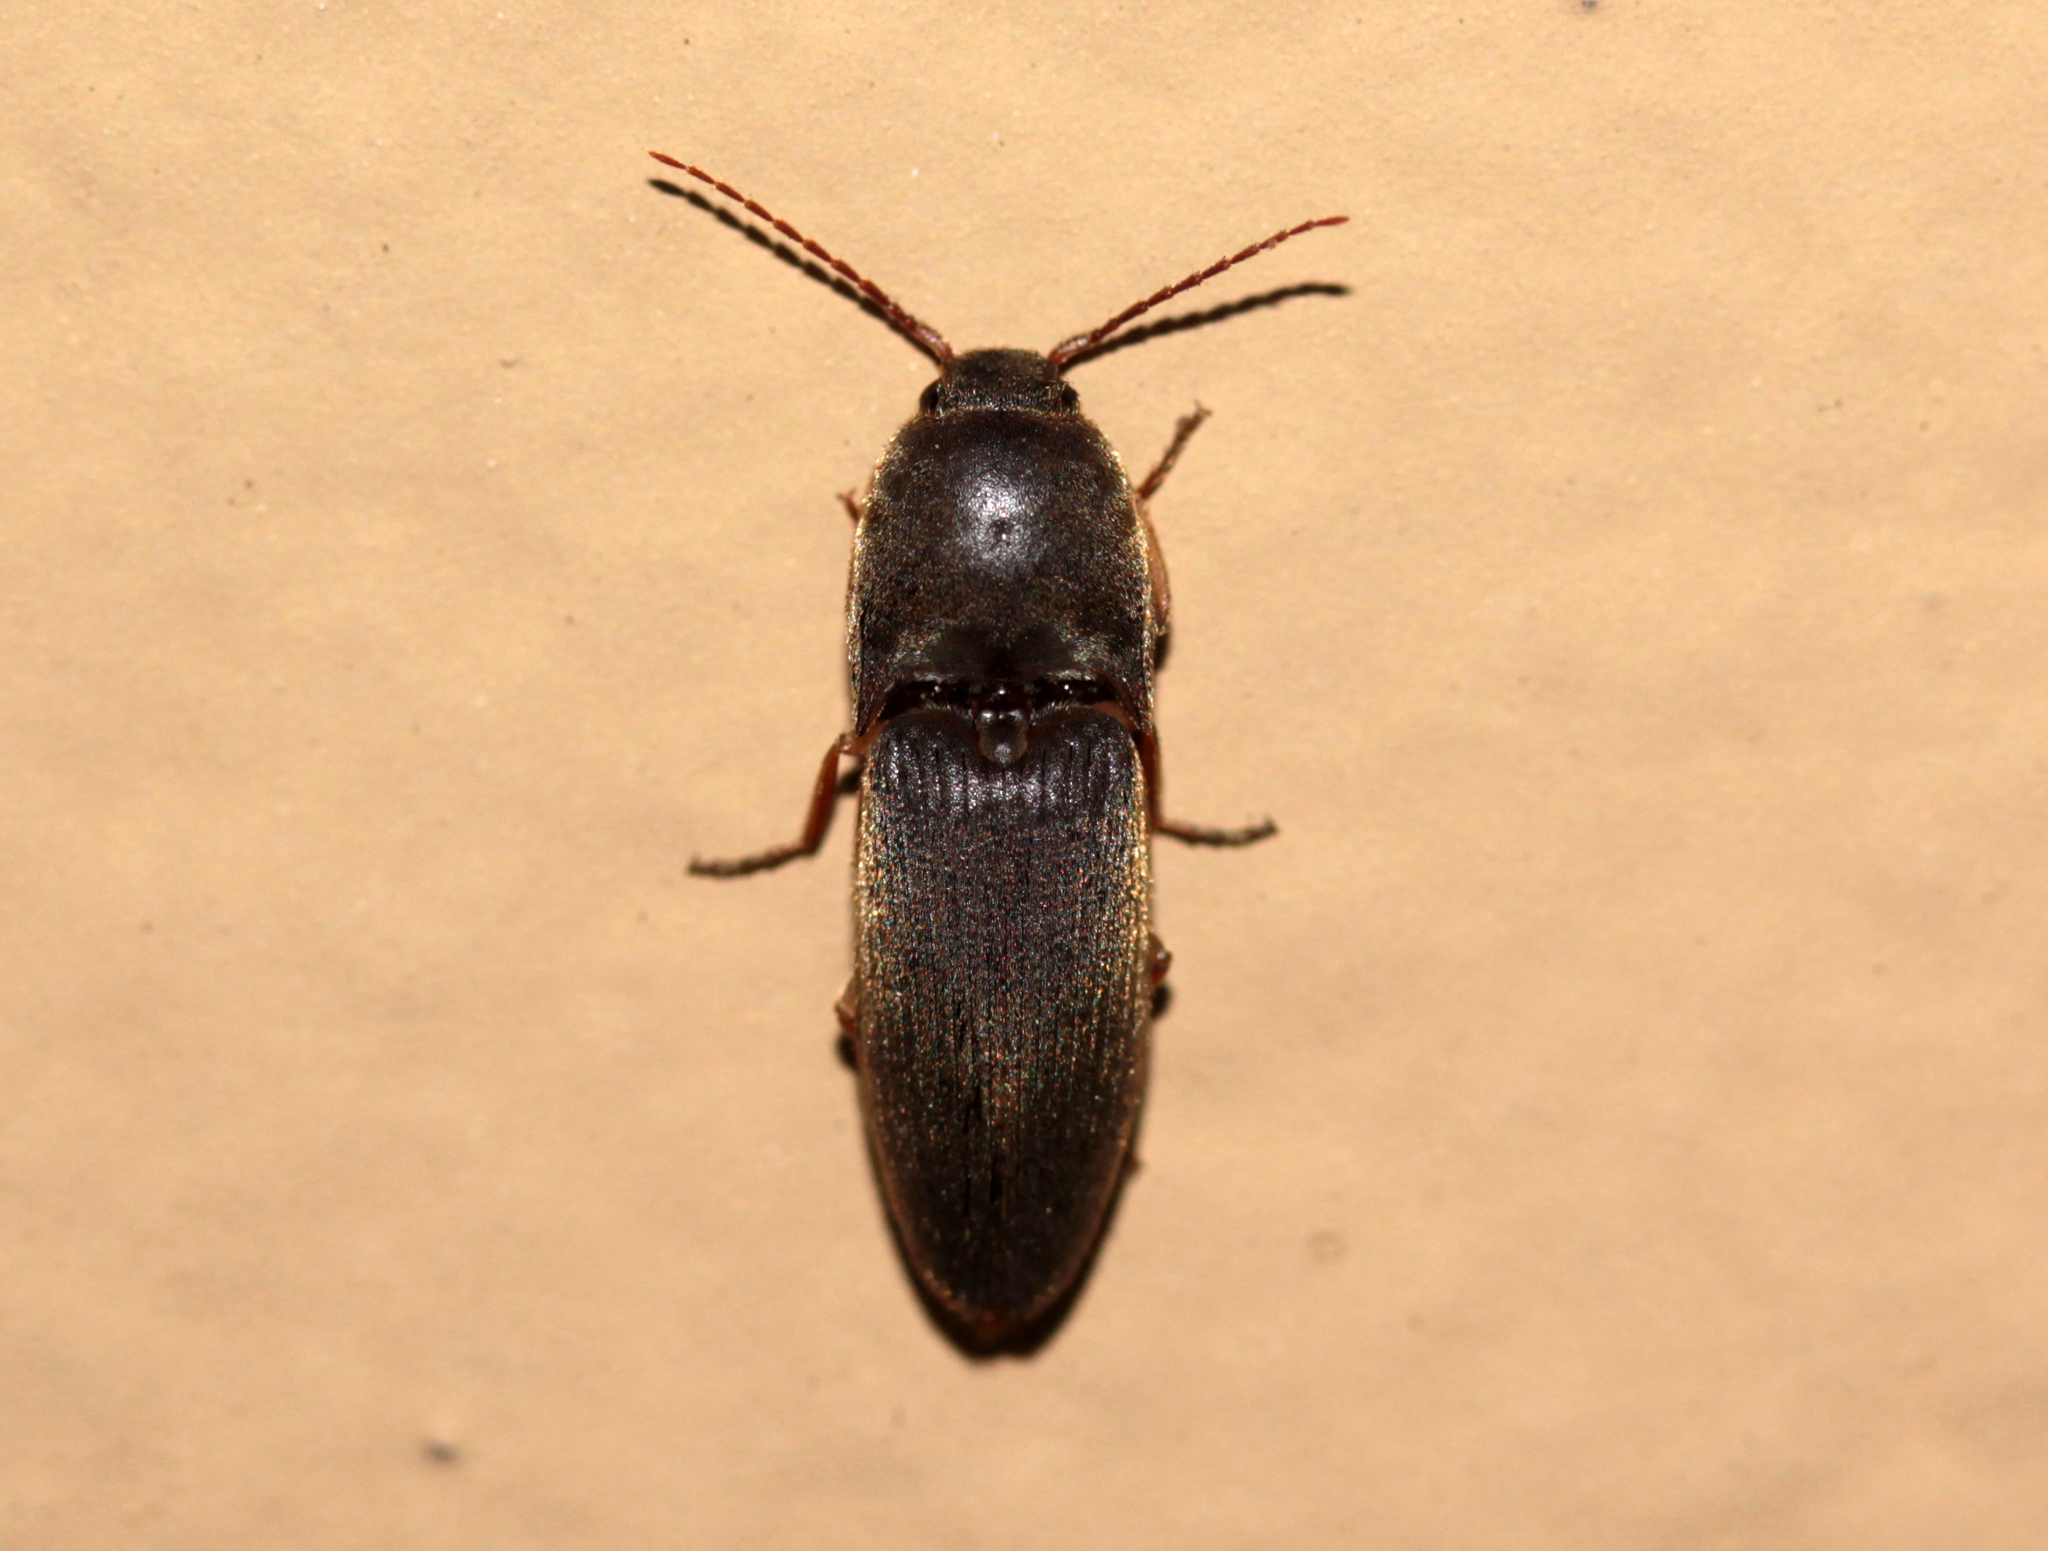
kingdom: Animalia
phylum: Arthropoda
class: Insecta
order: Coleoptera
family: Elateridae
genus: Conoderus
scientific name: Conoderus exsul
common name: Click beetle
